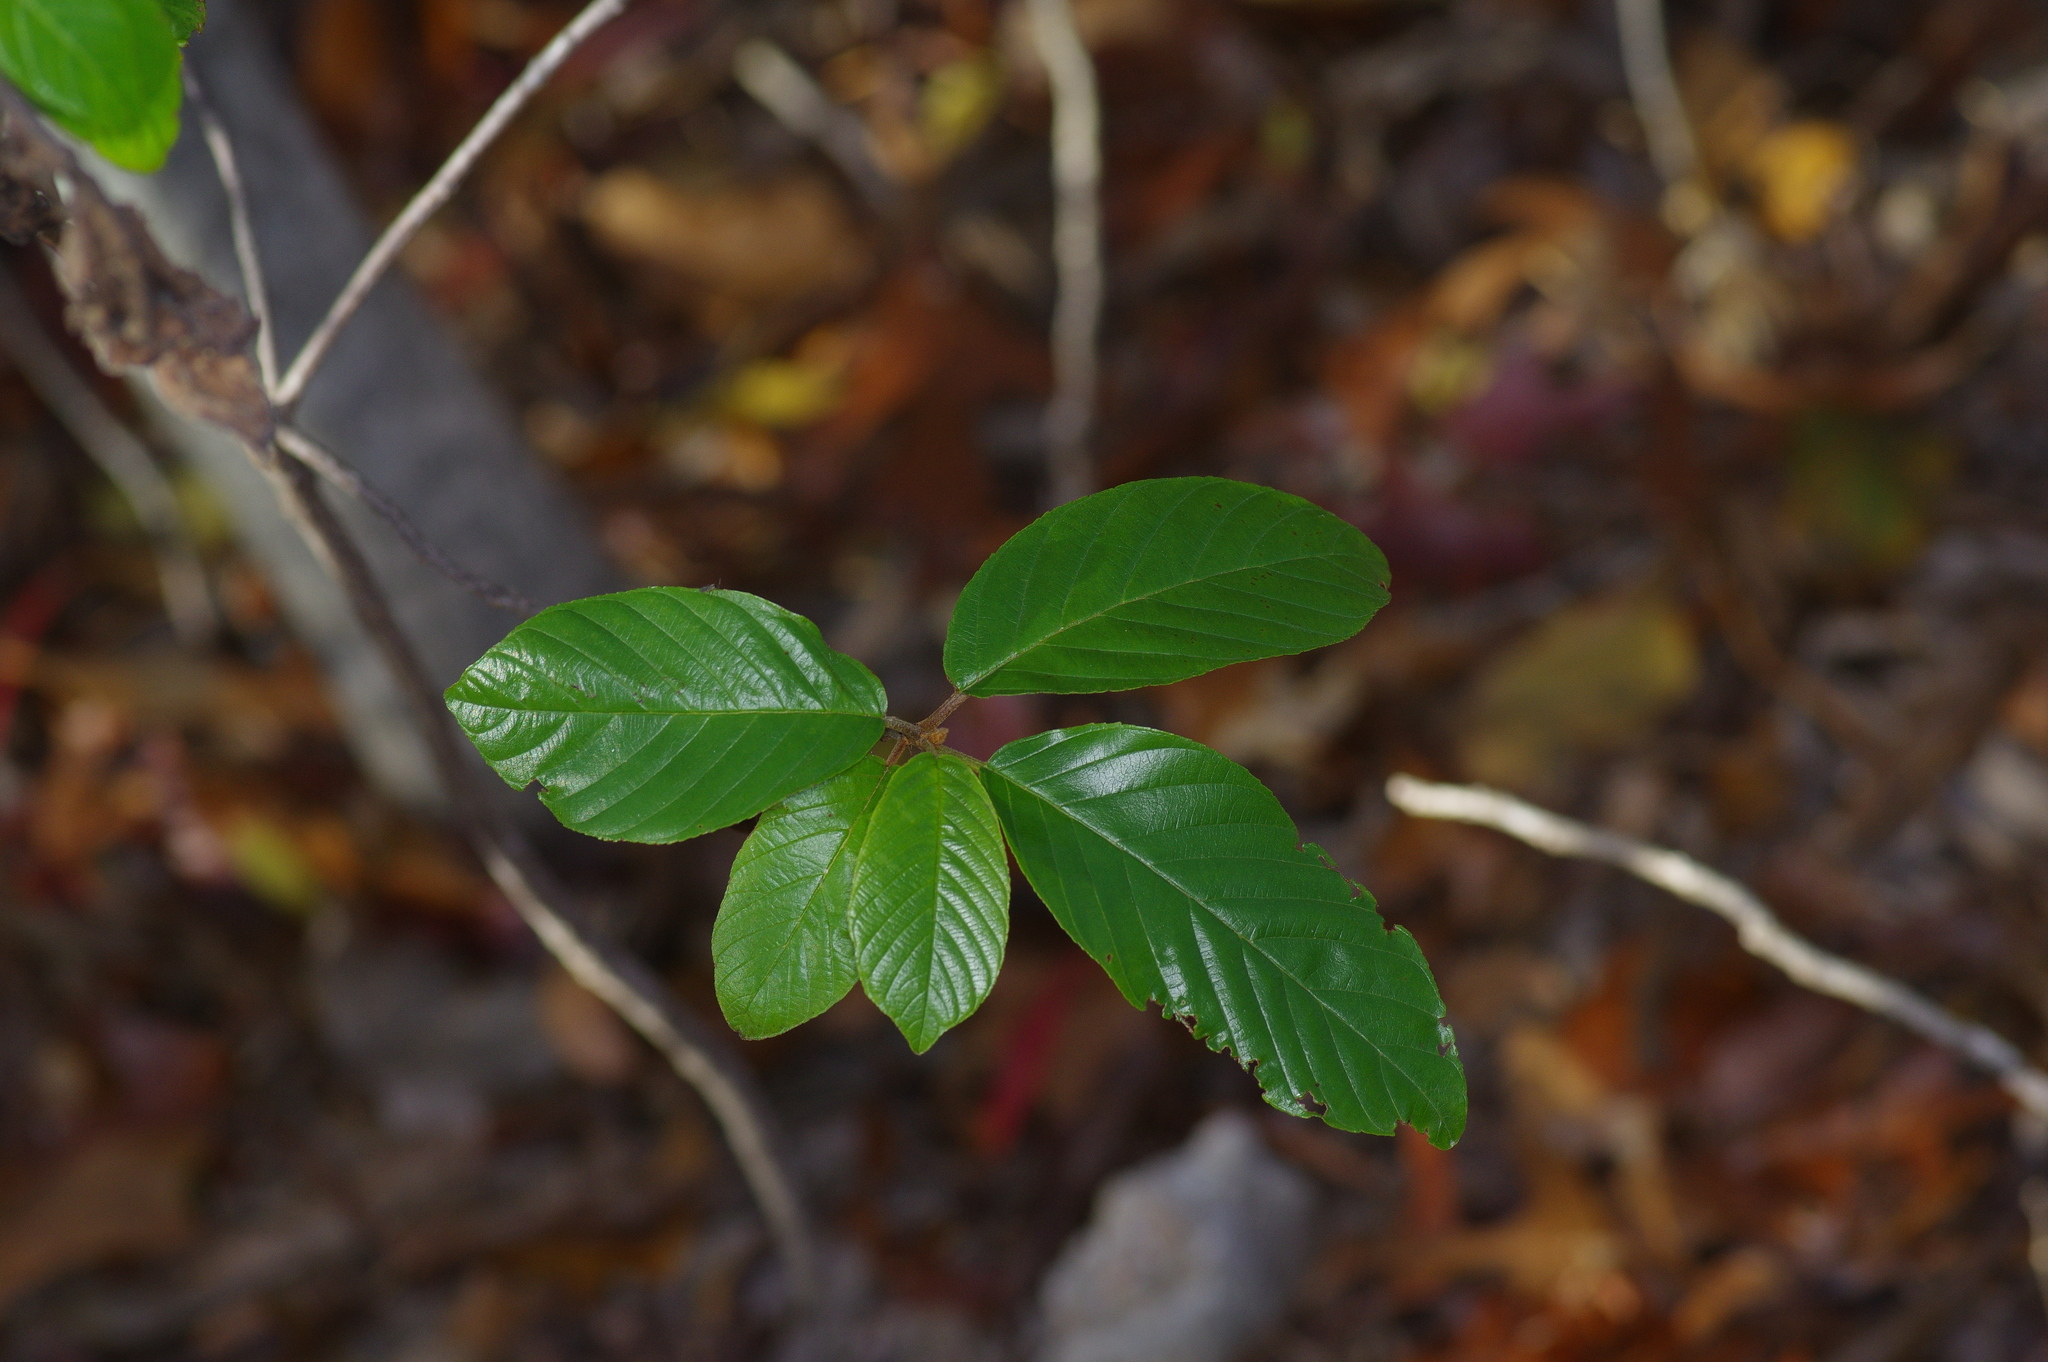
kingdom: Plantae
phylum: Tracheophyta
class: Magnoliopsida
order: Rosales
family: Rhamnaceae
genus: Frangula
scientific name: Frangula caroliniana
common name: Carolina buckthorn
